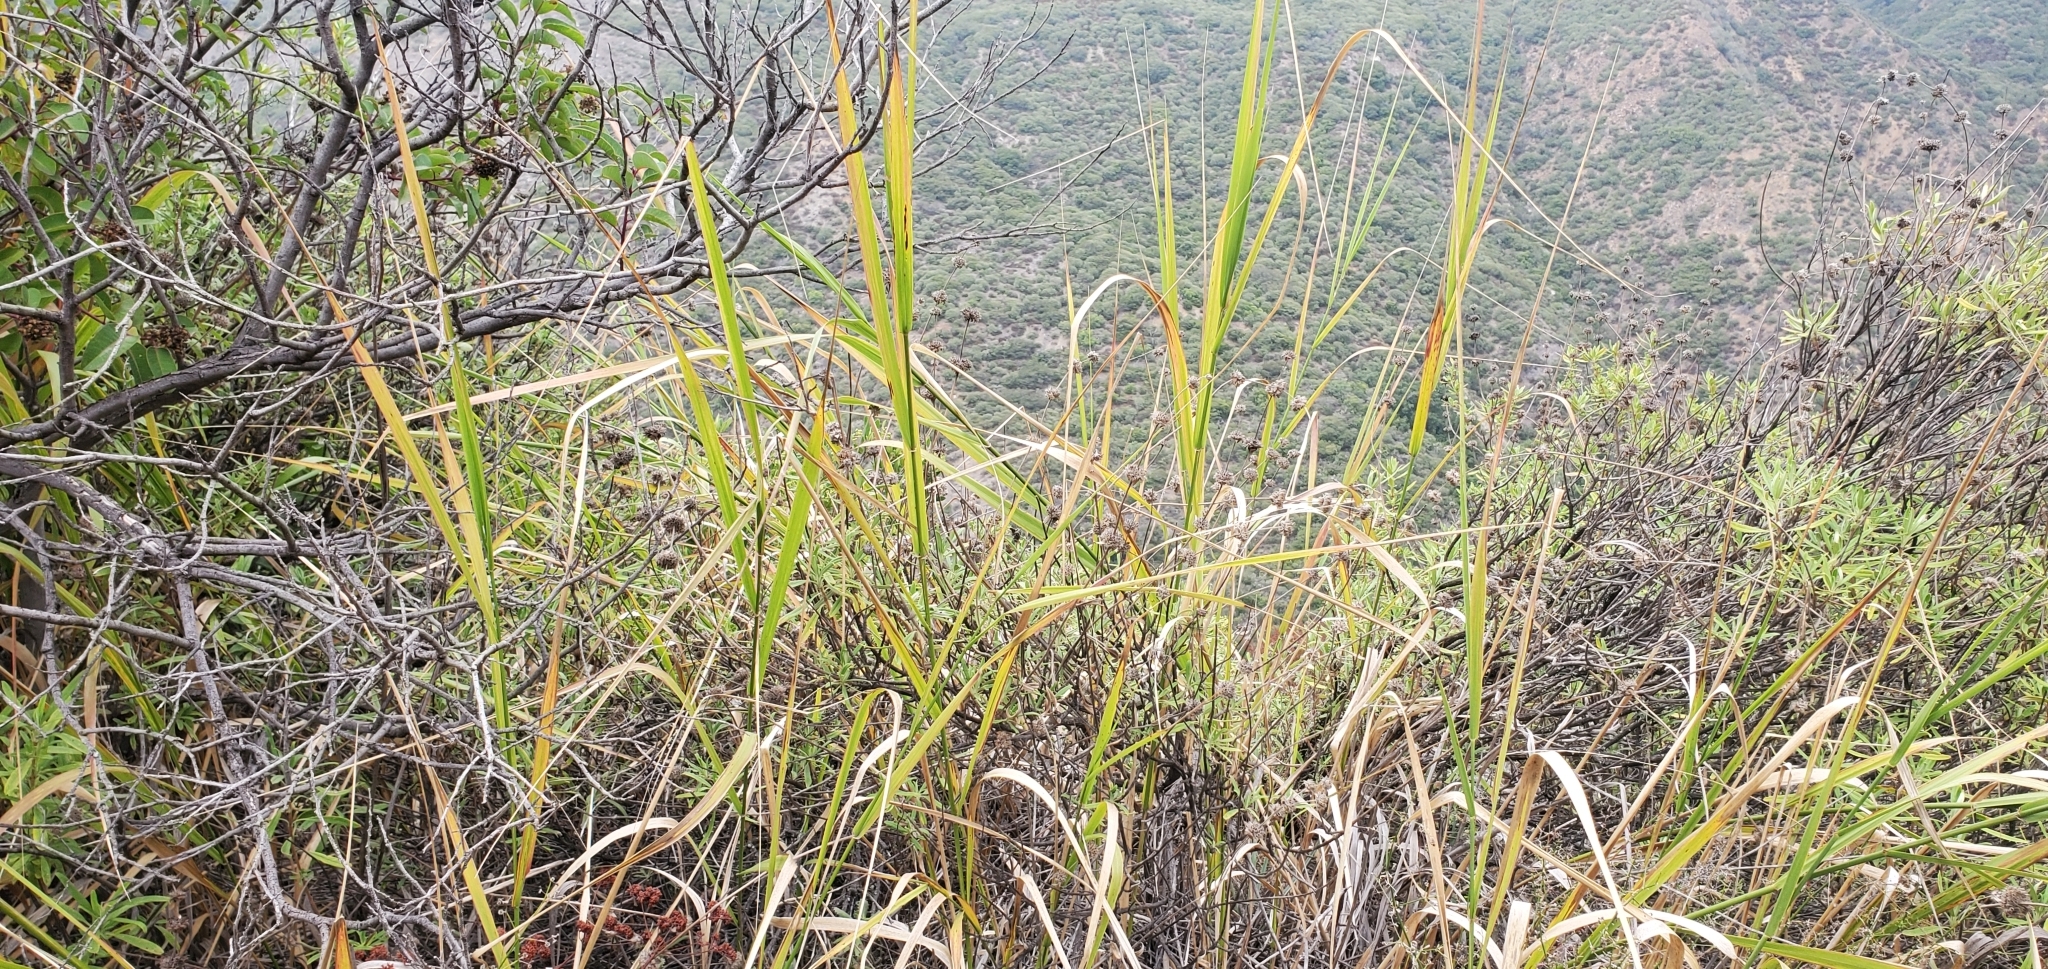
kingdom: Plantae
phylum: Tracheophyta
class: Liliopsida
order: Poales
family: Poaceae
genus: Leymus
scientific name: Leymus condensatus
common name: Giant wild rye
